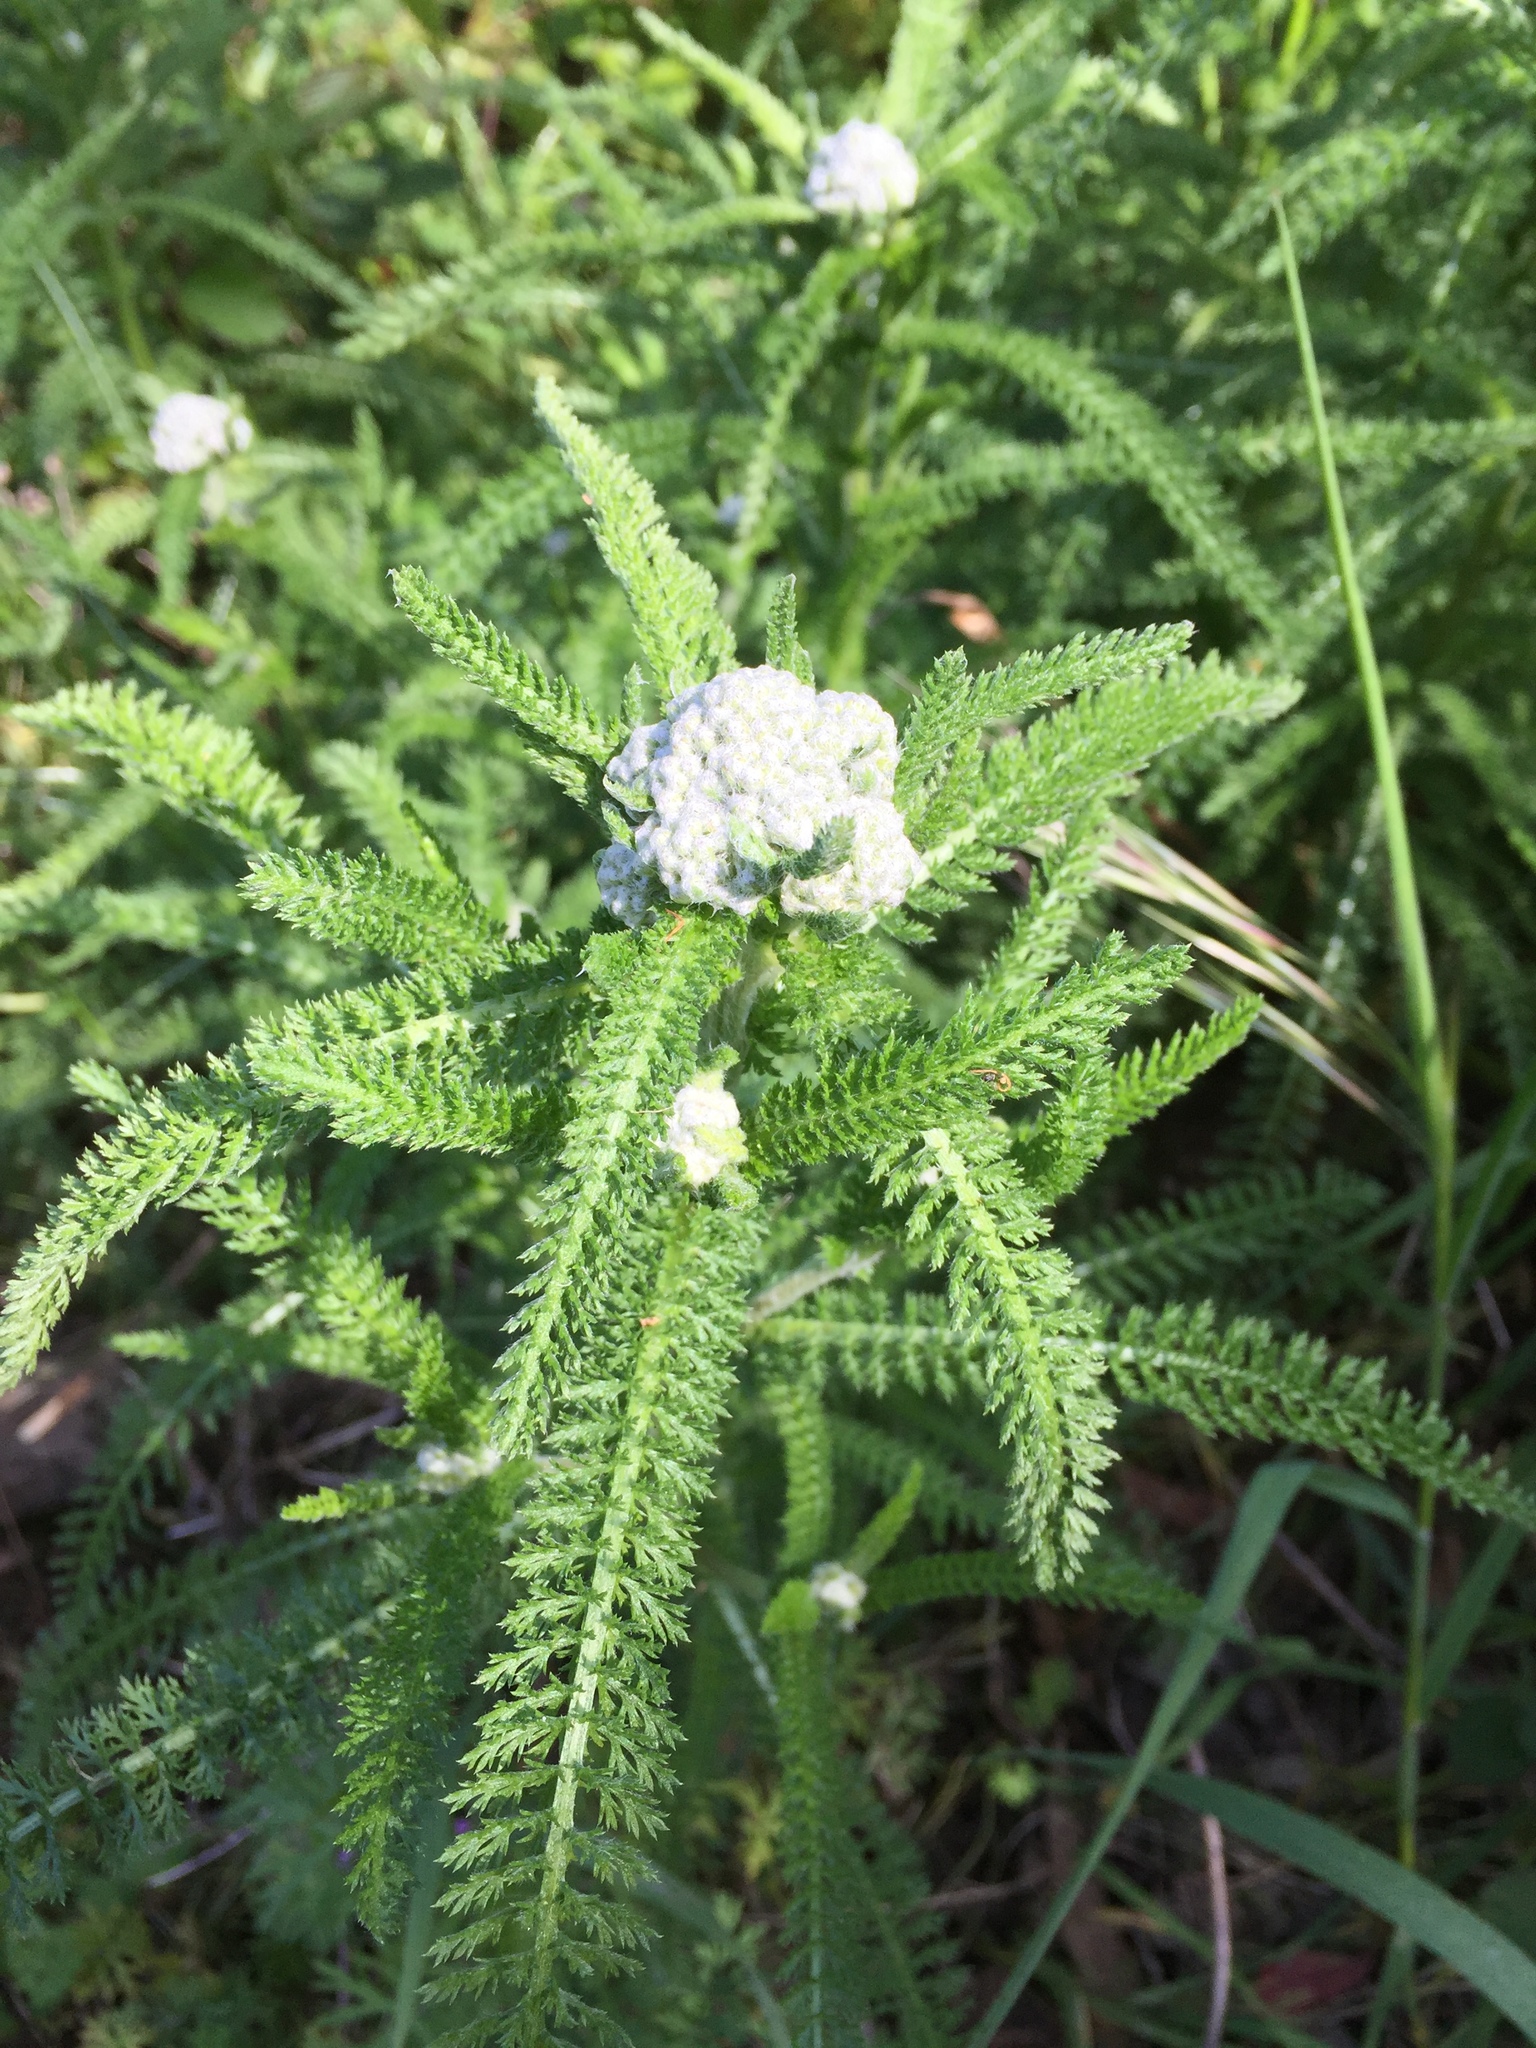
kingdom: Plantae
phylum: Tracheophyta
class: Magnoliopsida
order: Asterales
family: Asteraceae
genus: Achillea
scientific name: Achillea millefolium
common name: Yarrow
